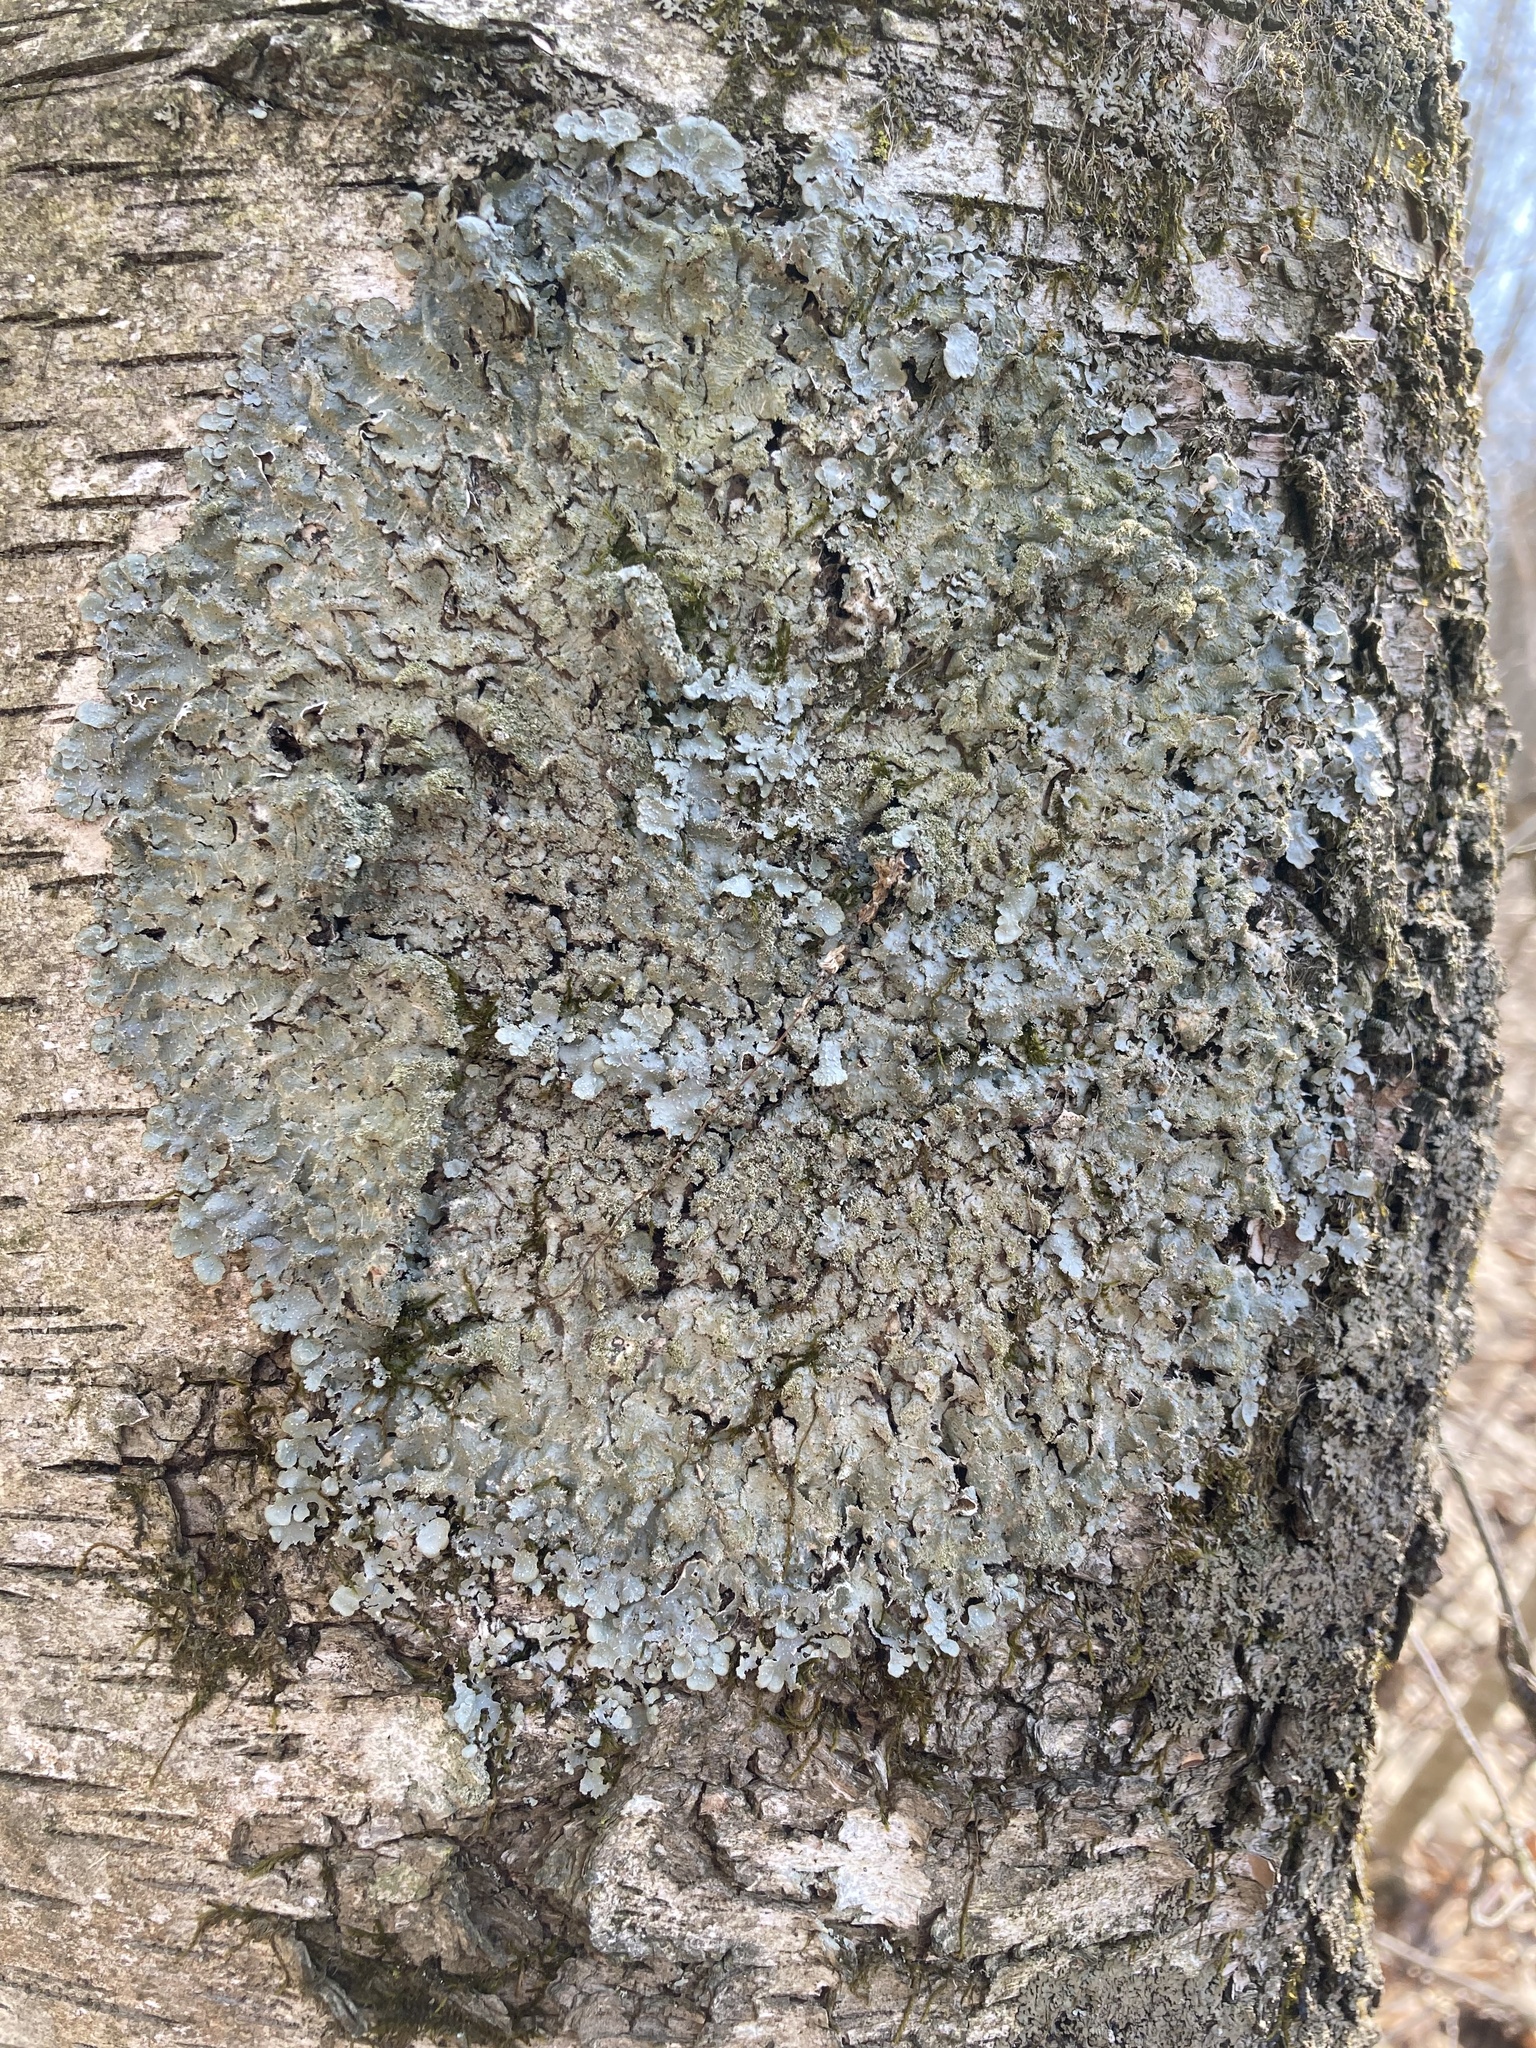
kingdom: Fungi
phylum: Ascomycota
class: Lecanoromycetes
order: Lecanorales
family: Parmeliaceae
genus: Punctelia
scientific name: Punctelia rudecta
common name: Rough speckled shield lichen
